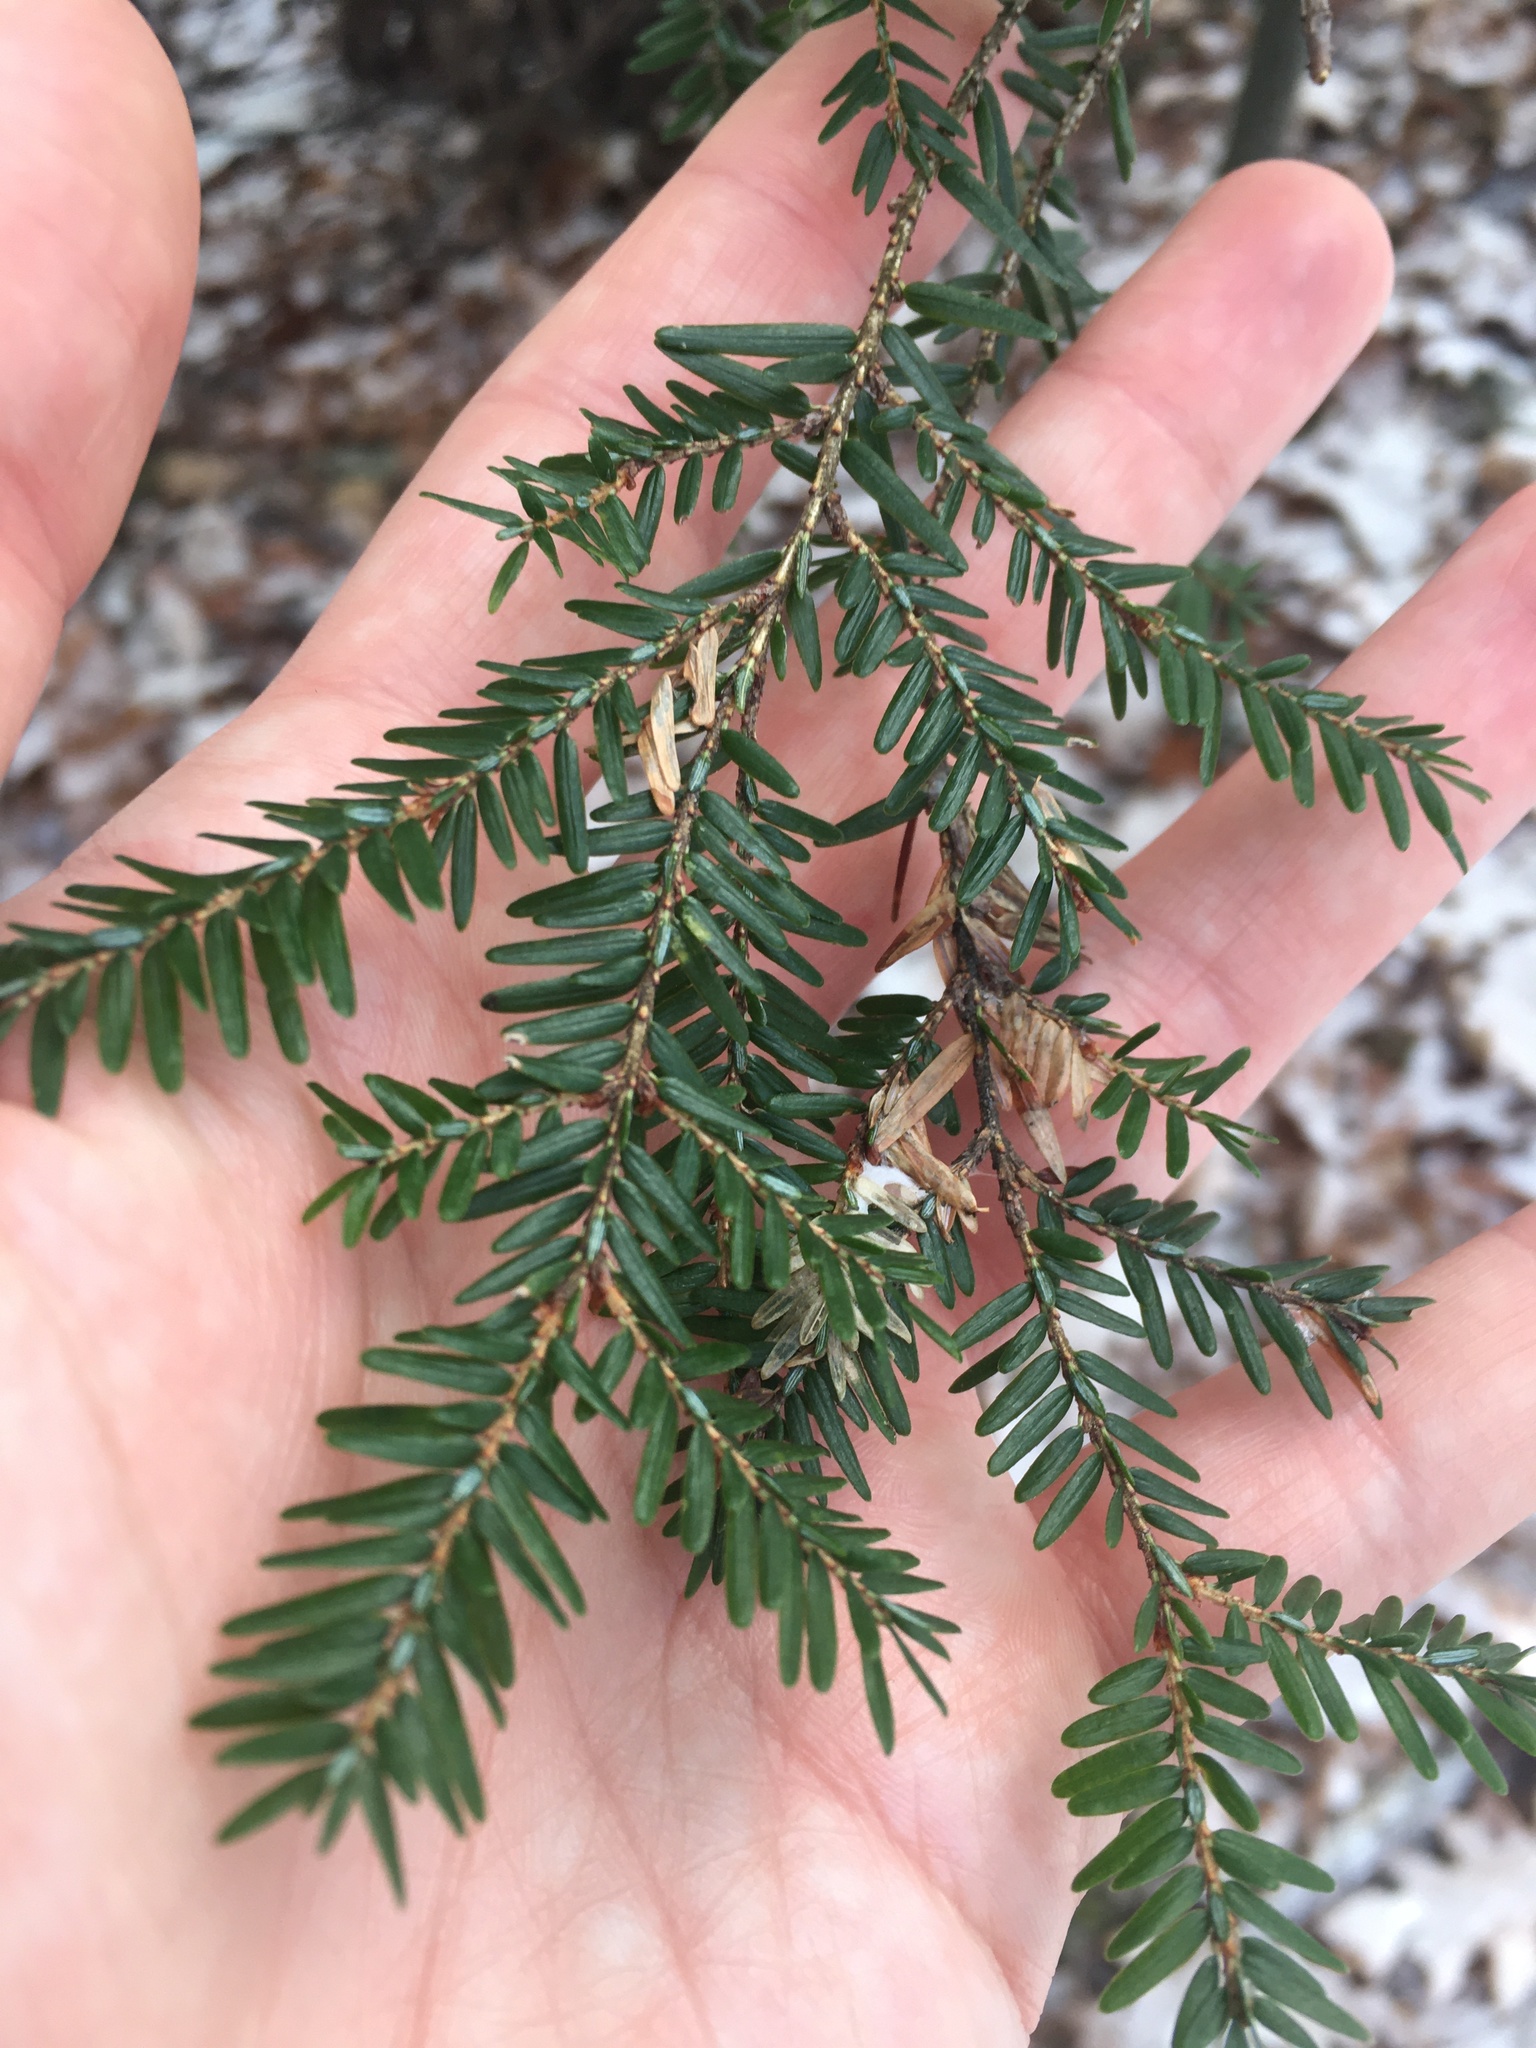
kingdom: Plantae
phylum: Tracheophyta
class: Pinopsida
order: Pinales
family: Pinaceae
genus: Tsuga
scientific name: Tsuga canadensis
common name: Eastern hemlock
